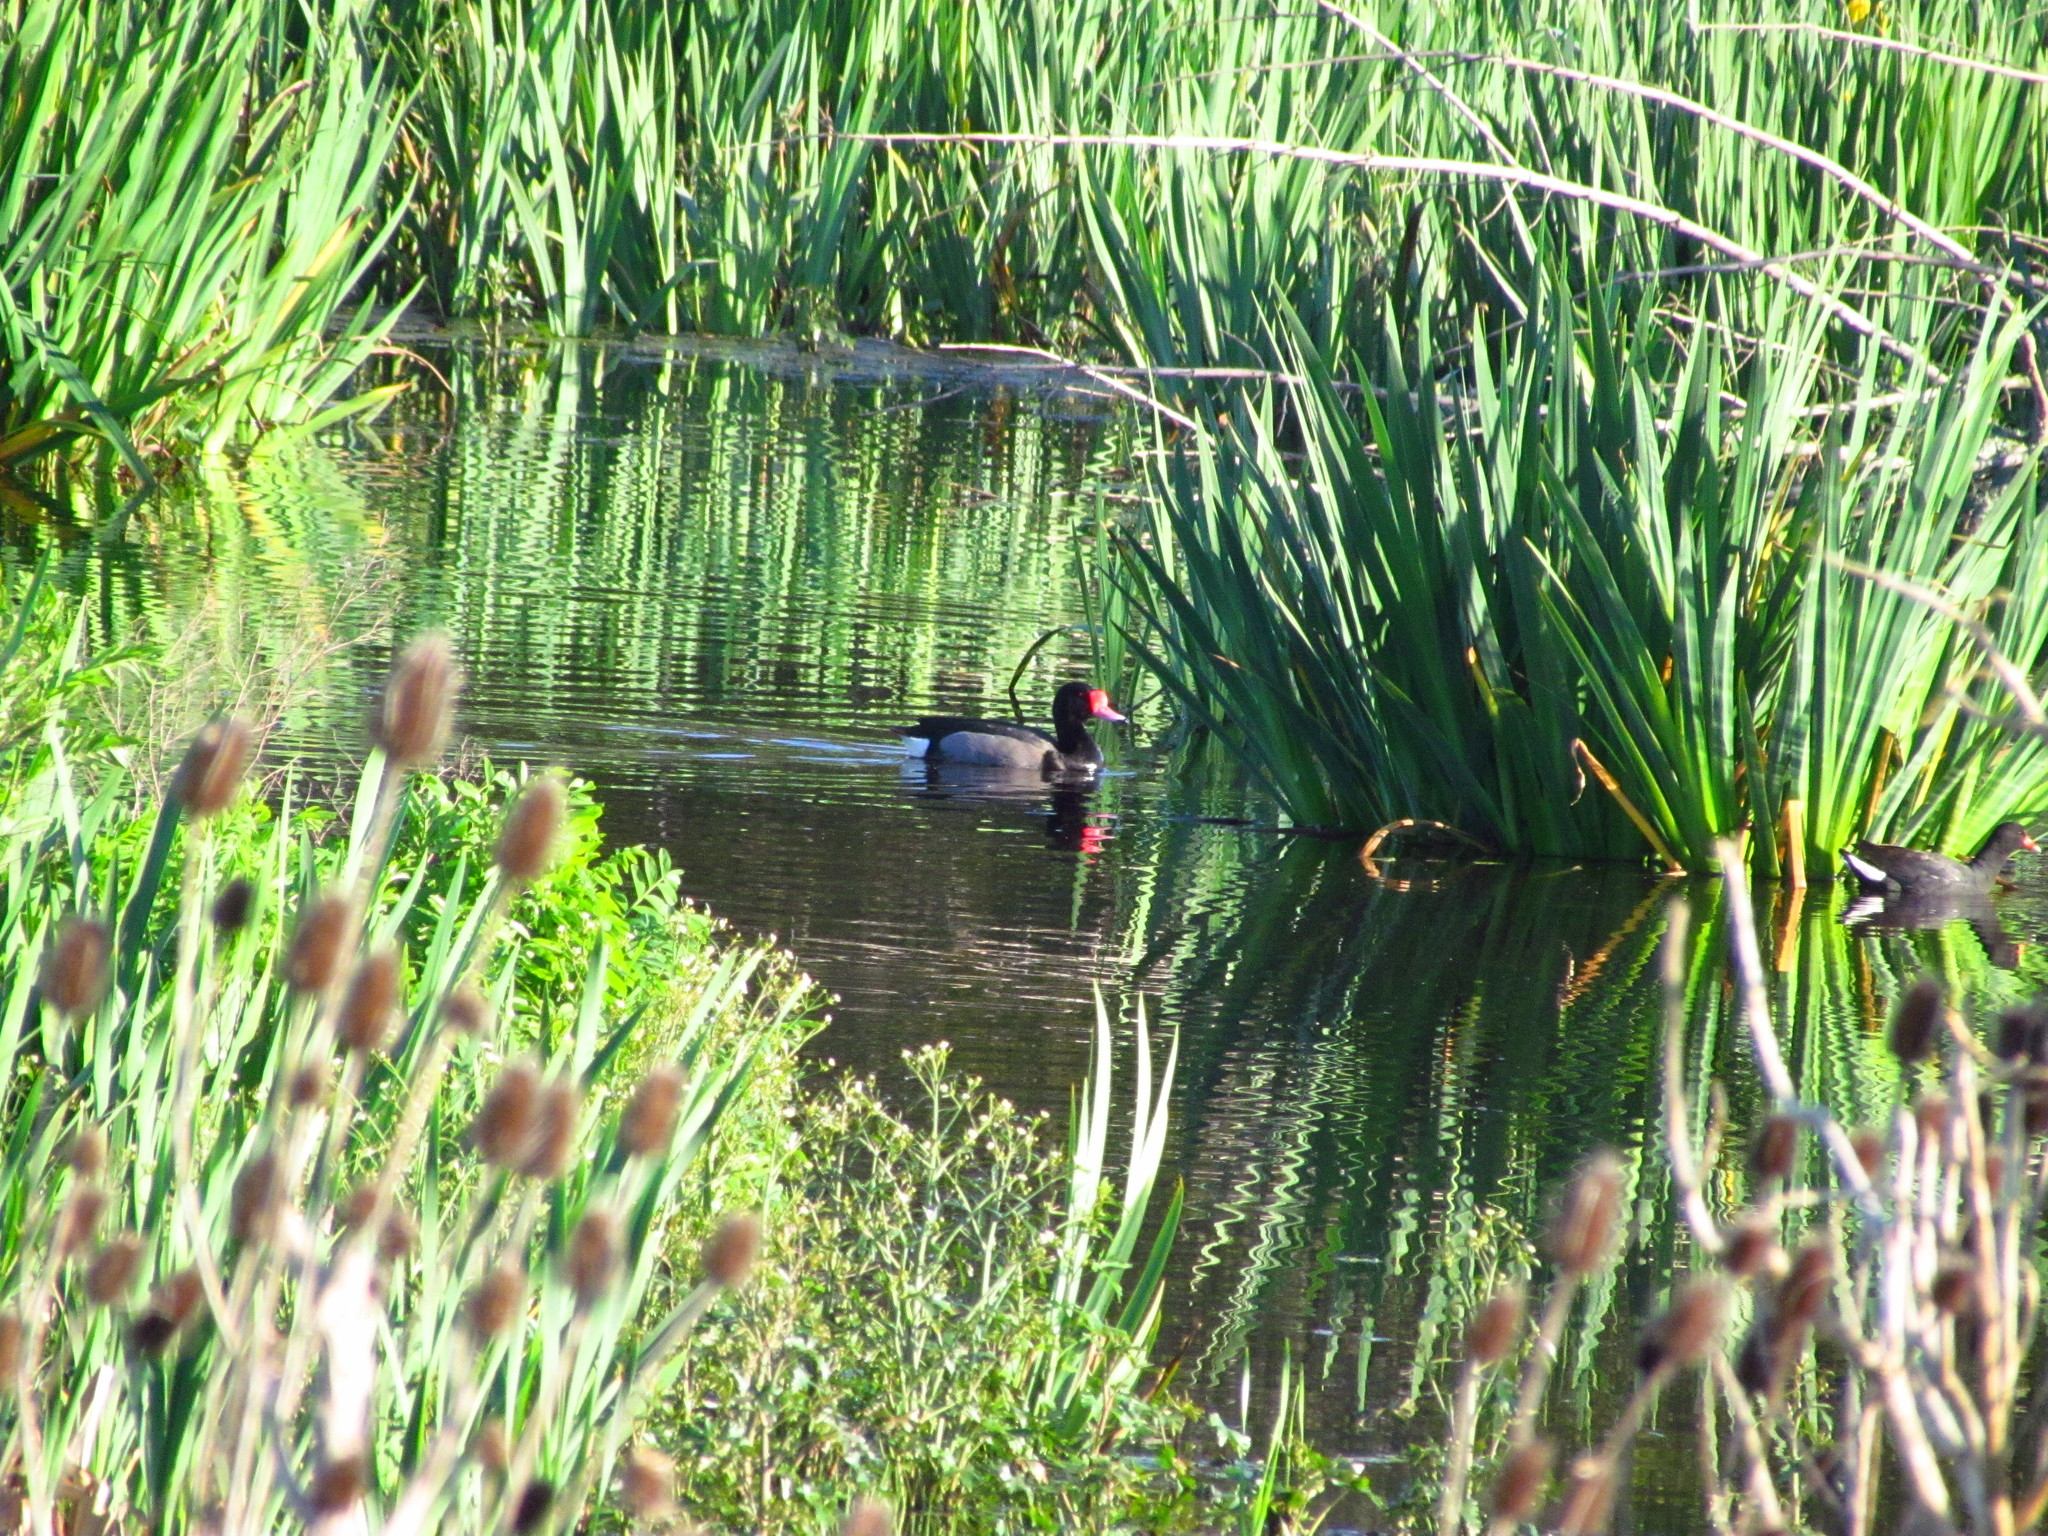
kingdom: Animalia
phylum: Chordata
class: Aves
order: Anseriformes
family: Anatidae
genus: Netta
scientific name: Netta peposaca
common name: Rosy-billed pochard
